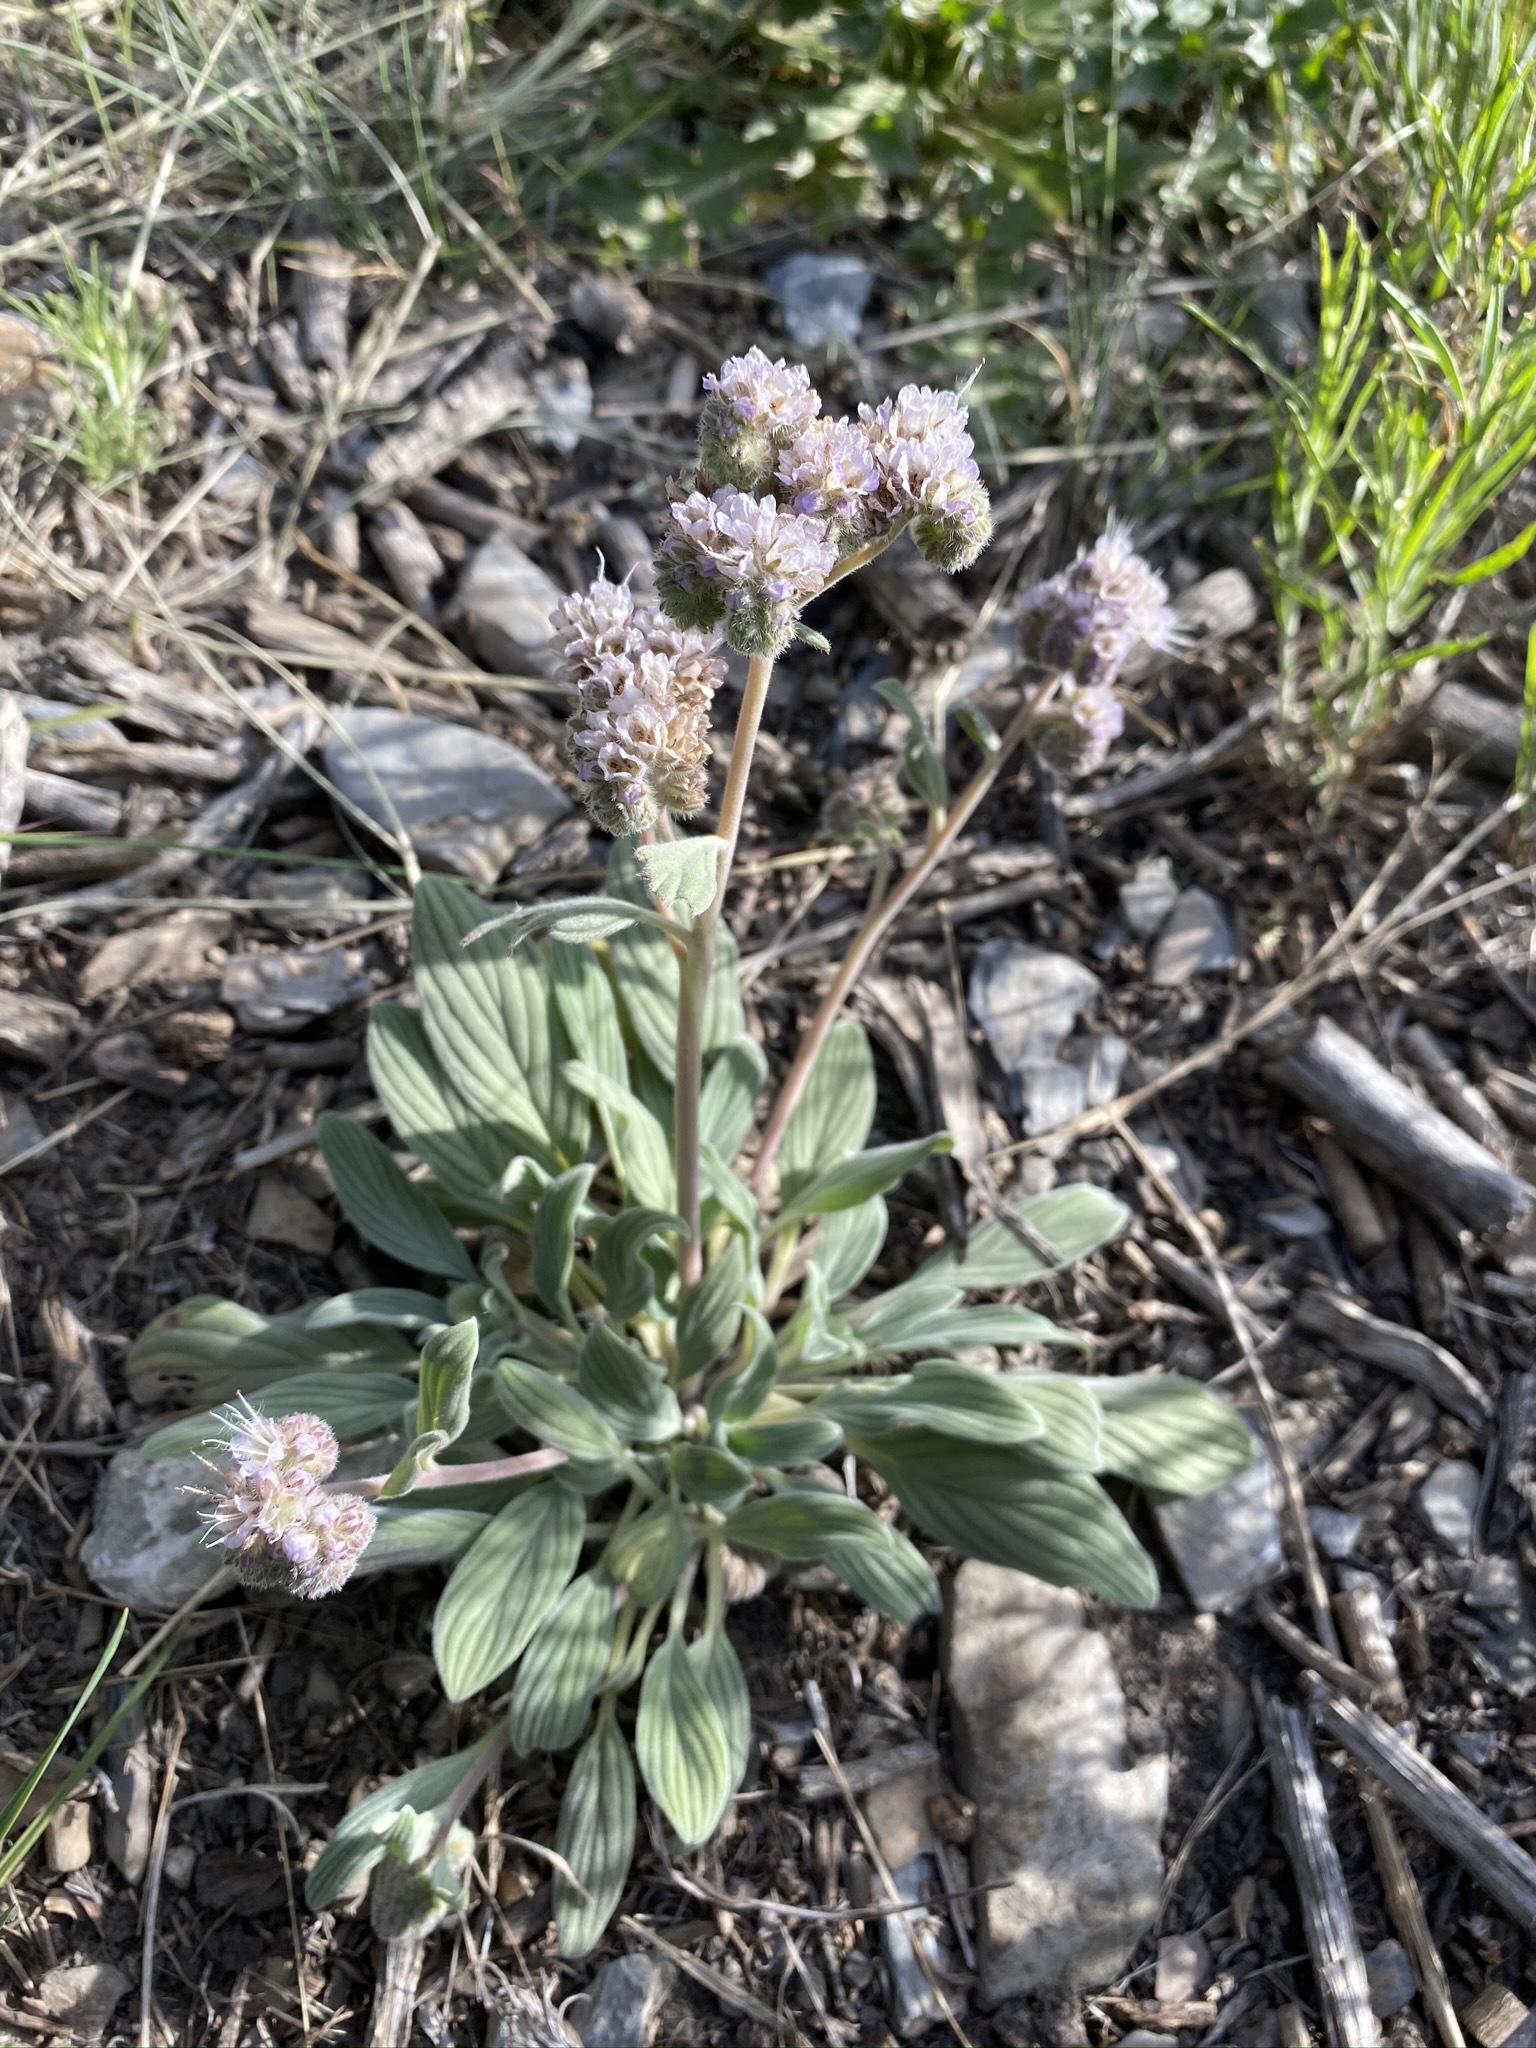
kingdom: Plantae
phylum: Tracheophyta
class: Magnoliopsida
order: Boraginales
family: Hydrophyllaceae
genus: Phacelia
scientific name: Phacelia hastata
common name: Silver-leaved phacelia
